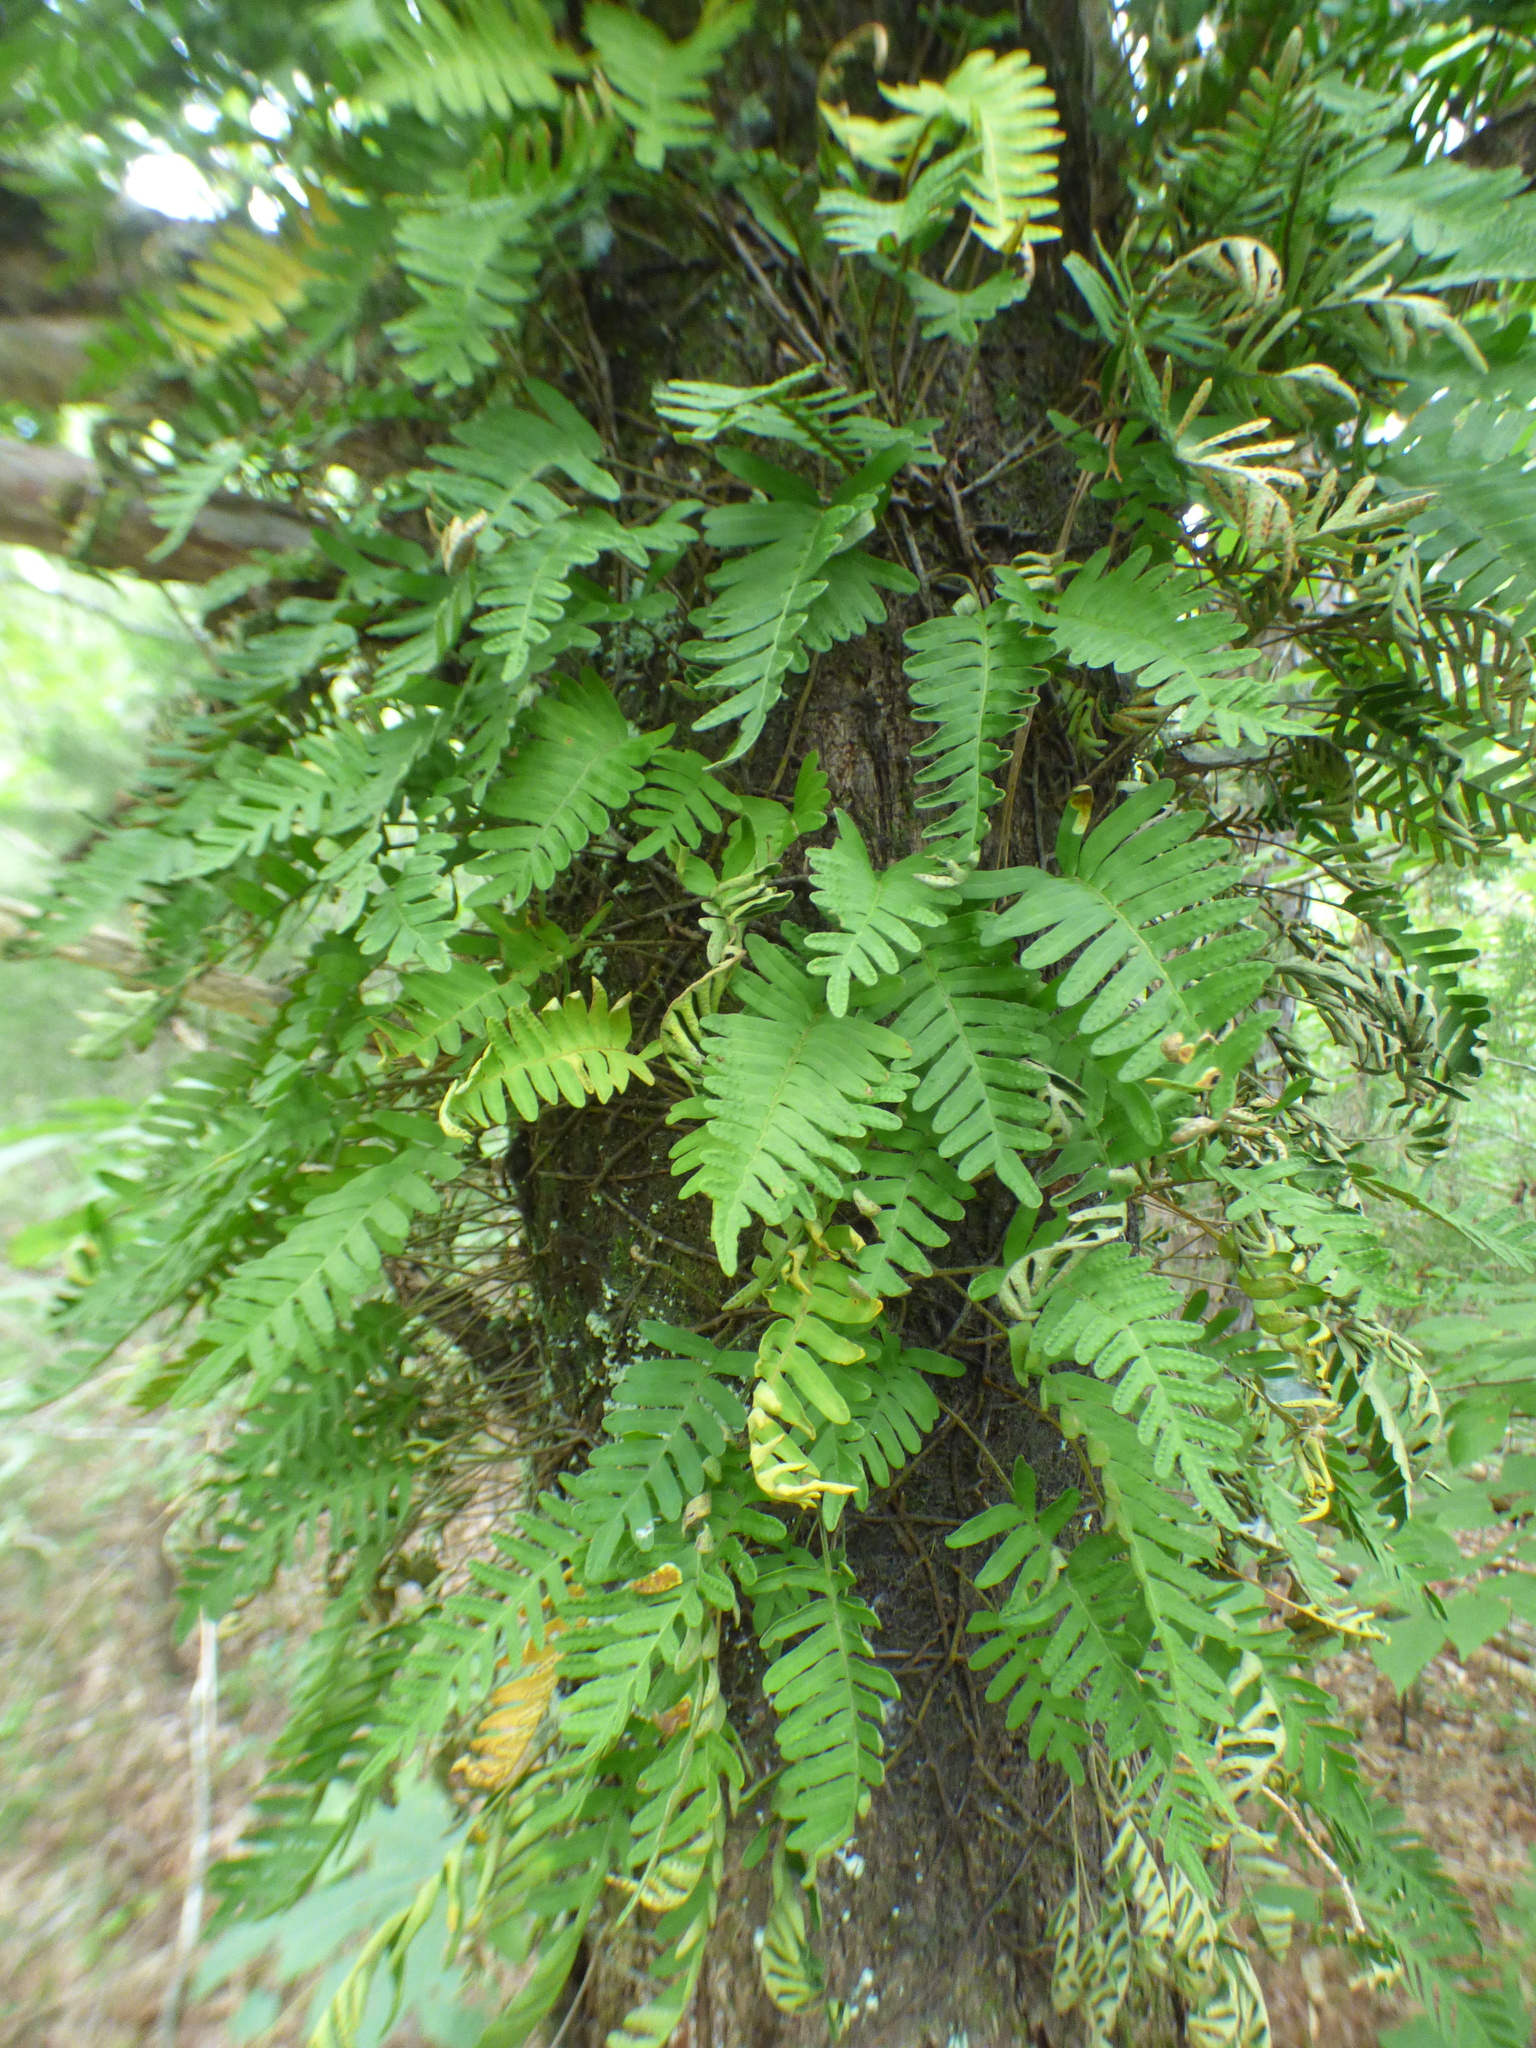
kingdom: Plantae
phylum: Tracheophyta
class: Polypodiopsida
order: Polypodiales
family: Polypodiaceae
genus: Pleopeltis
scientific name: Pleopeltis michauxiana
